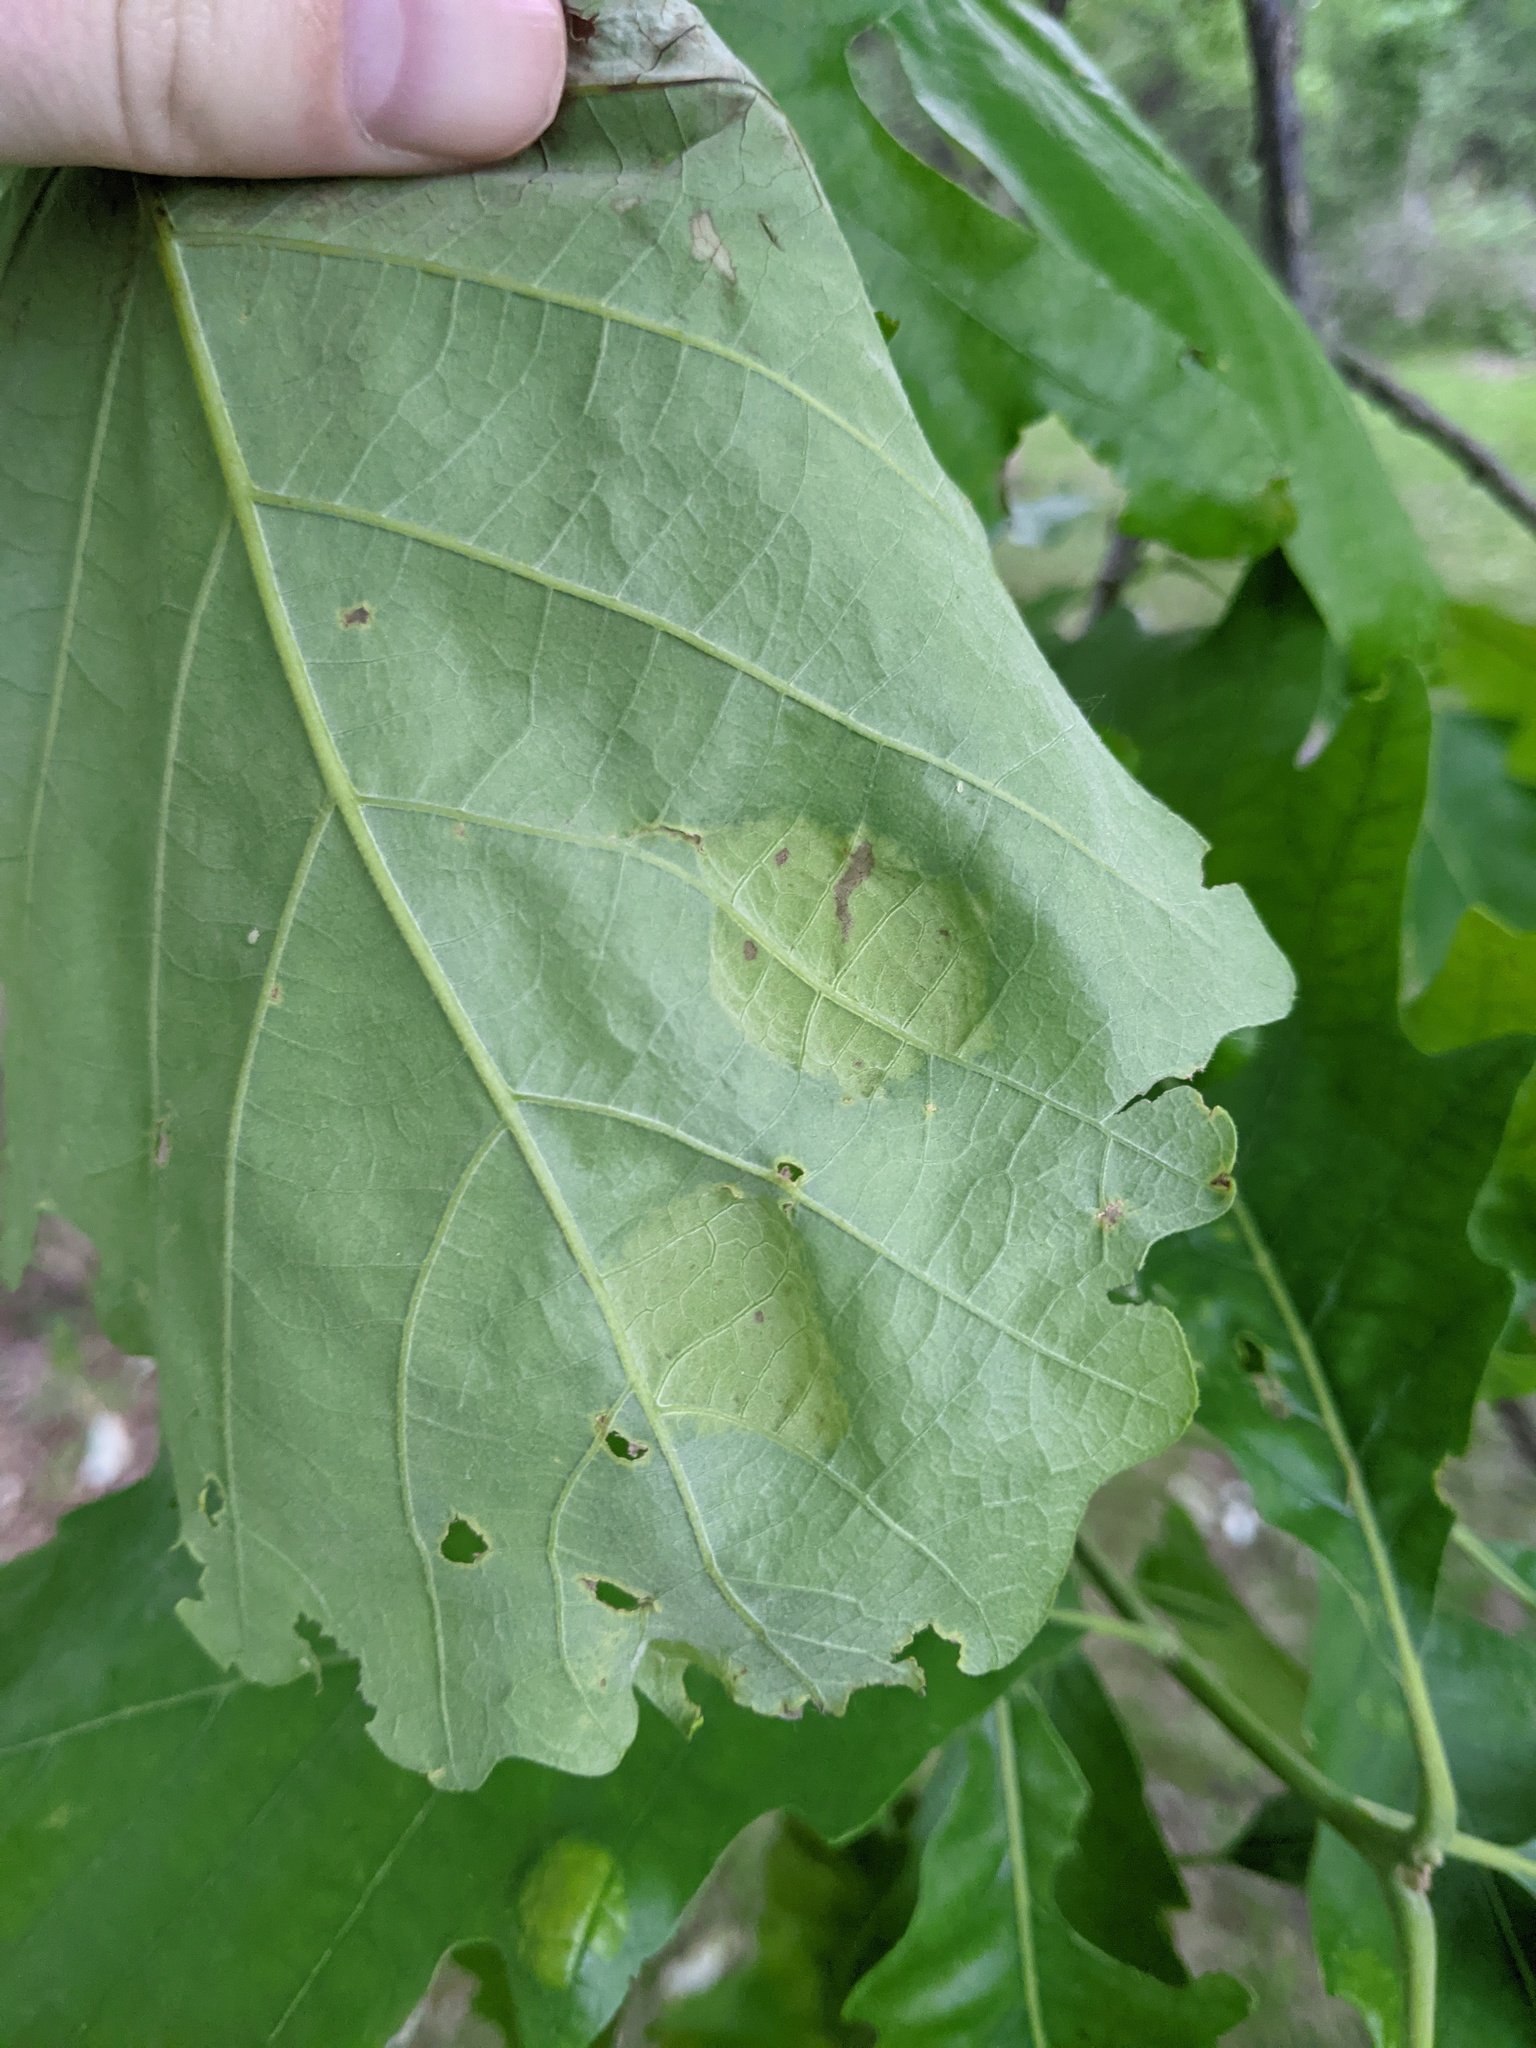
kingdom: Fungi
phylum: Ascomycota
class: Taphrinomycetes
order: Taphrinales
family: Taphrinaceae
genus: Taphrina
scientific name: Taphrina caerulescens
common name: Oak leaf blister
